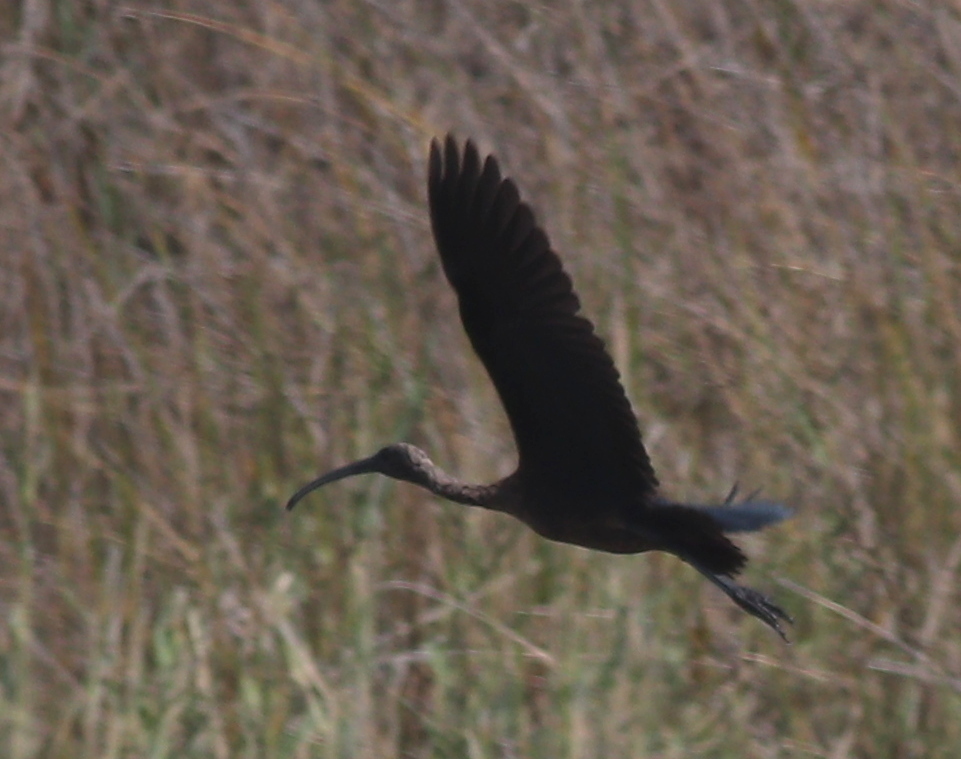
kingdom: Animalia
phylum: Chordata
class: Aves
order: Pelecaniformes
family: Threskiornithidae
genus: Plegadis
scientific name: Plegadis falcinellus
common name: Glossy ibis
